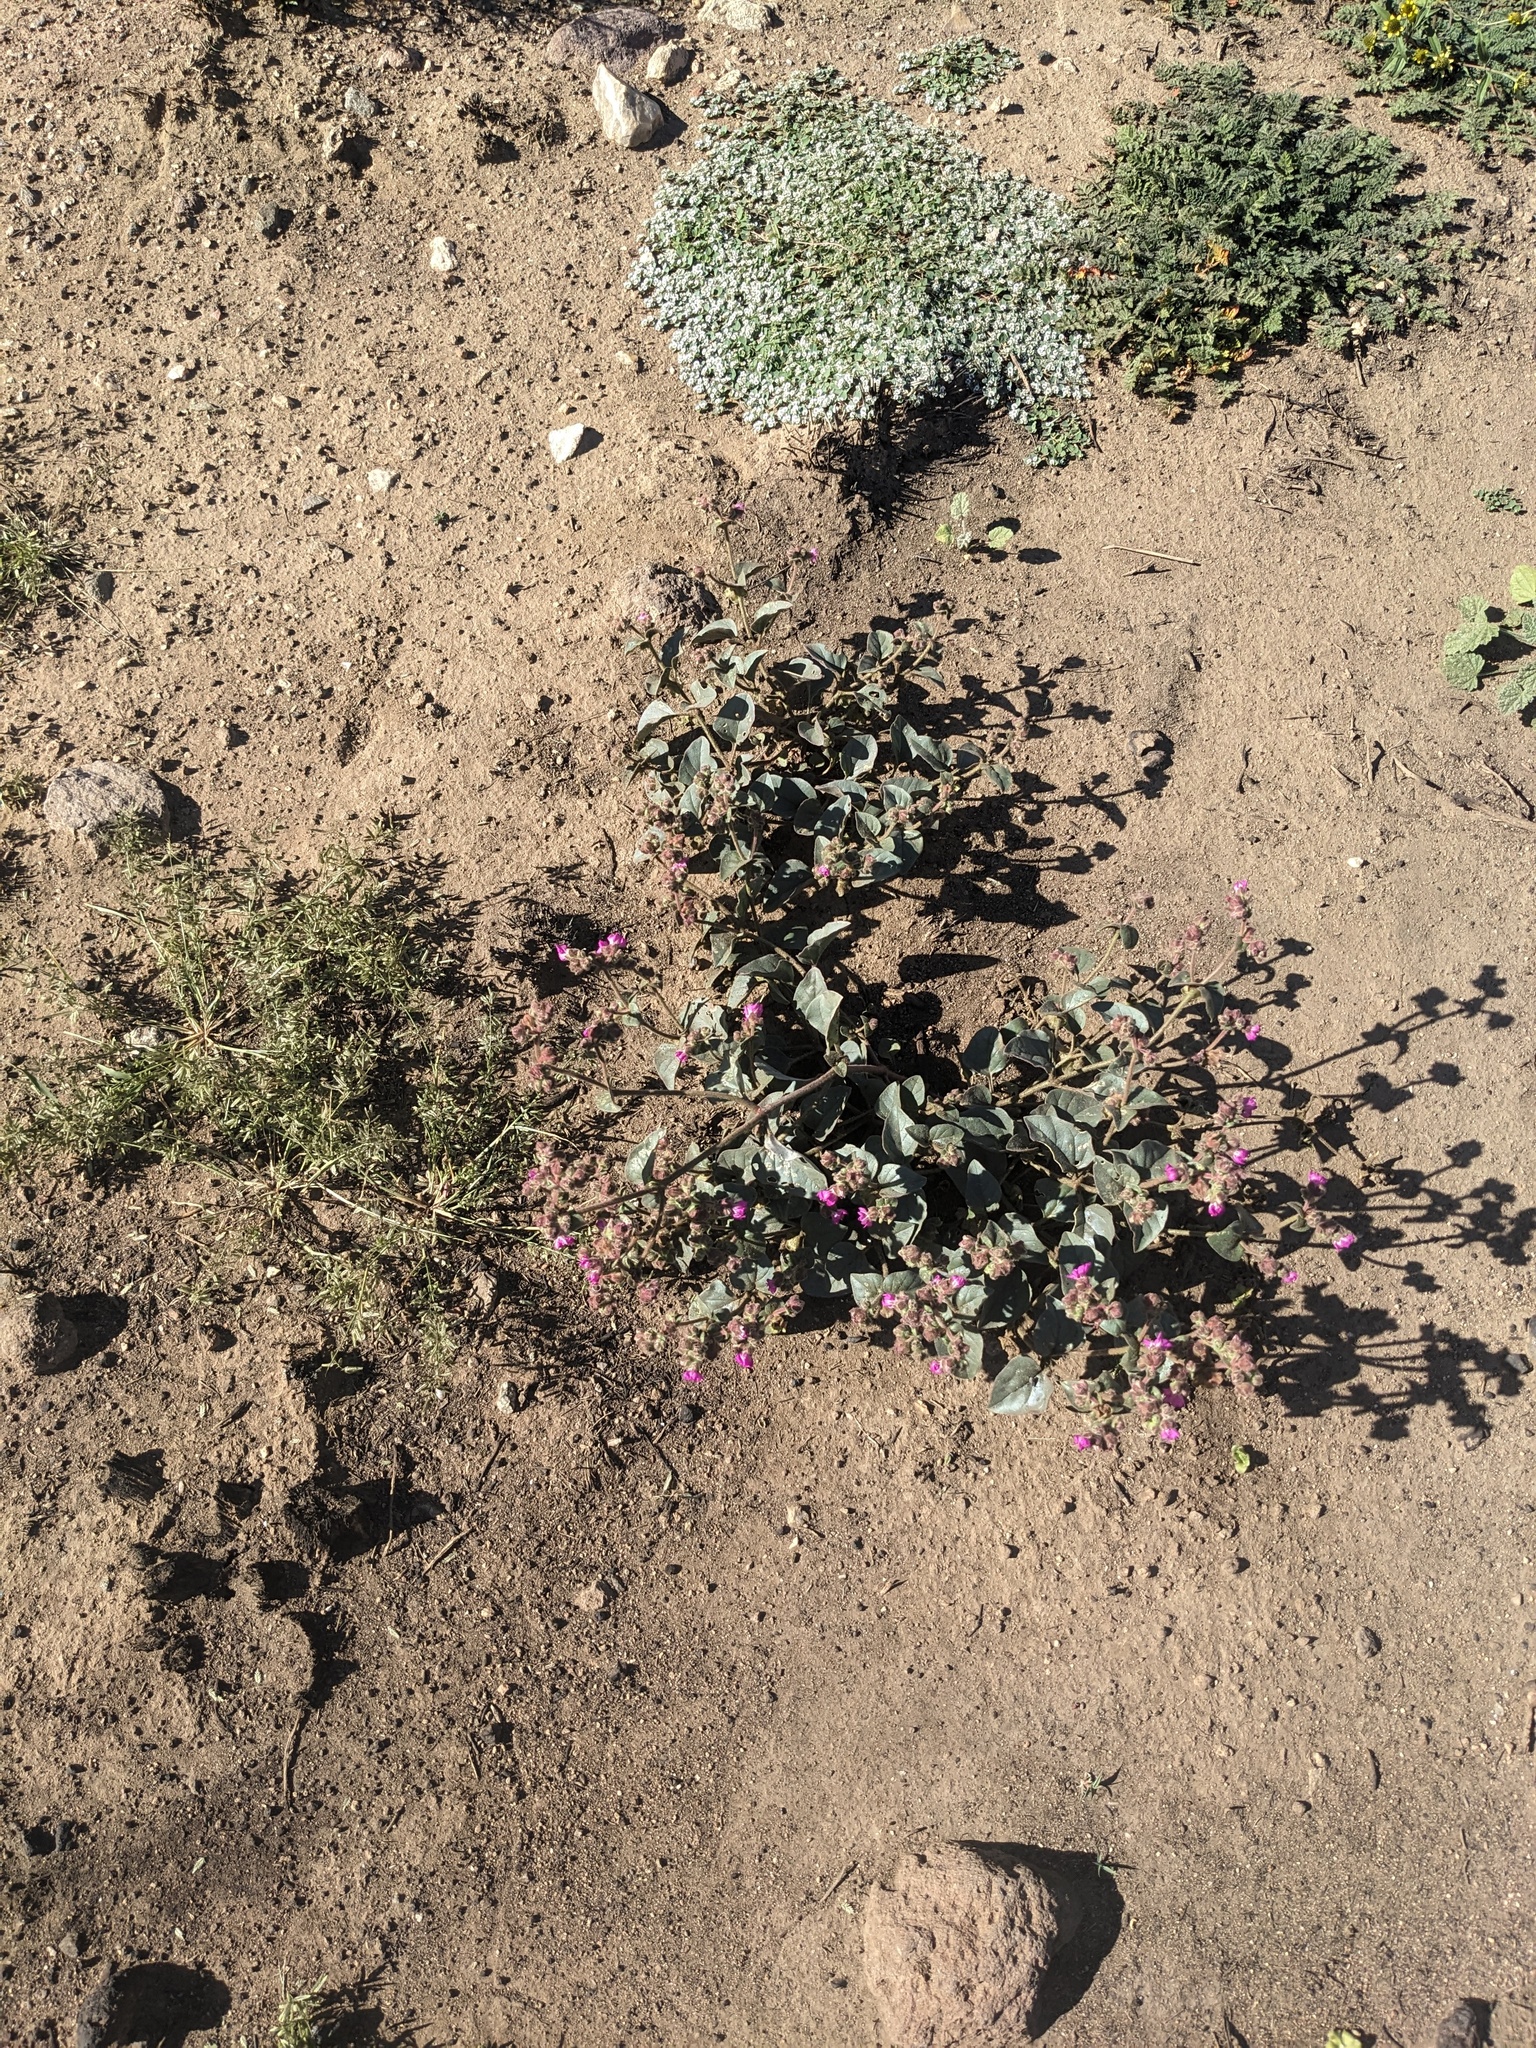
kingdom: Plantae
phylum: Tracheophyta
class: Magnoliopsida
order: Caryophyllales
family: Nyctaginaceae
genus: Mirabilis
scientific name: Mirabilis albida
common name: Hairy four-o'clock
